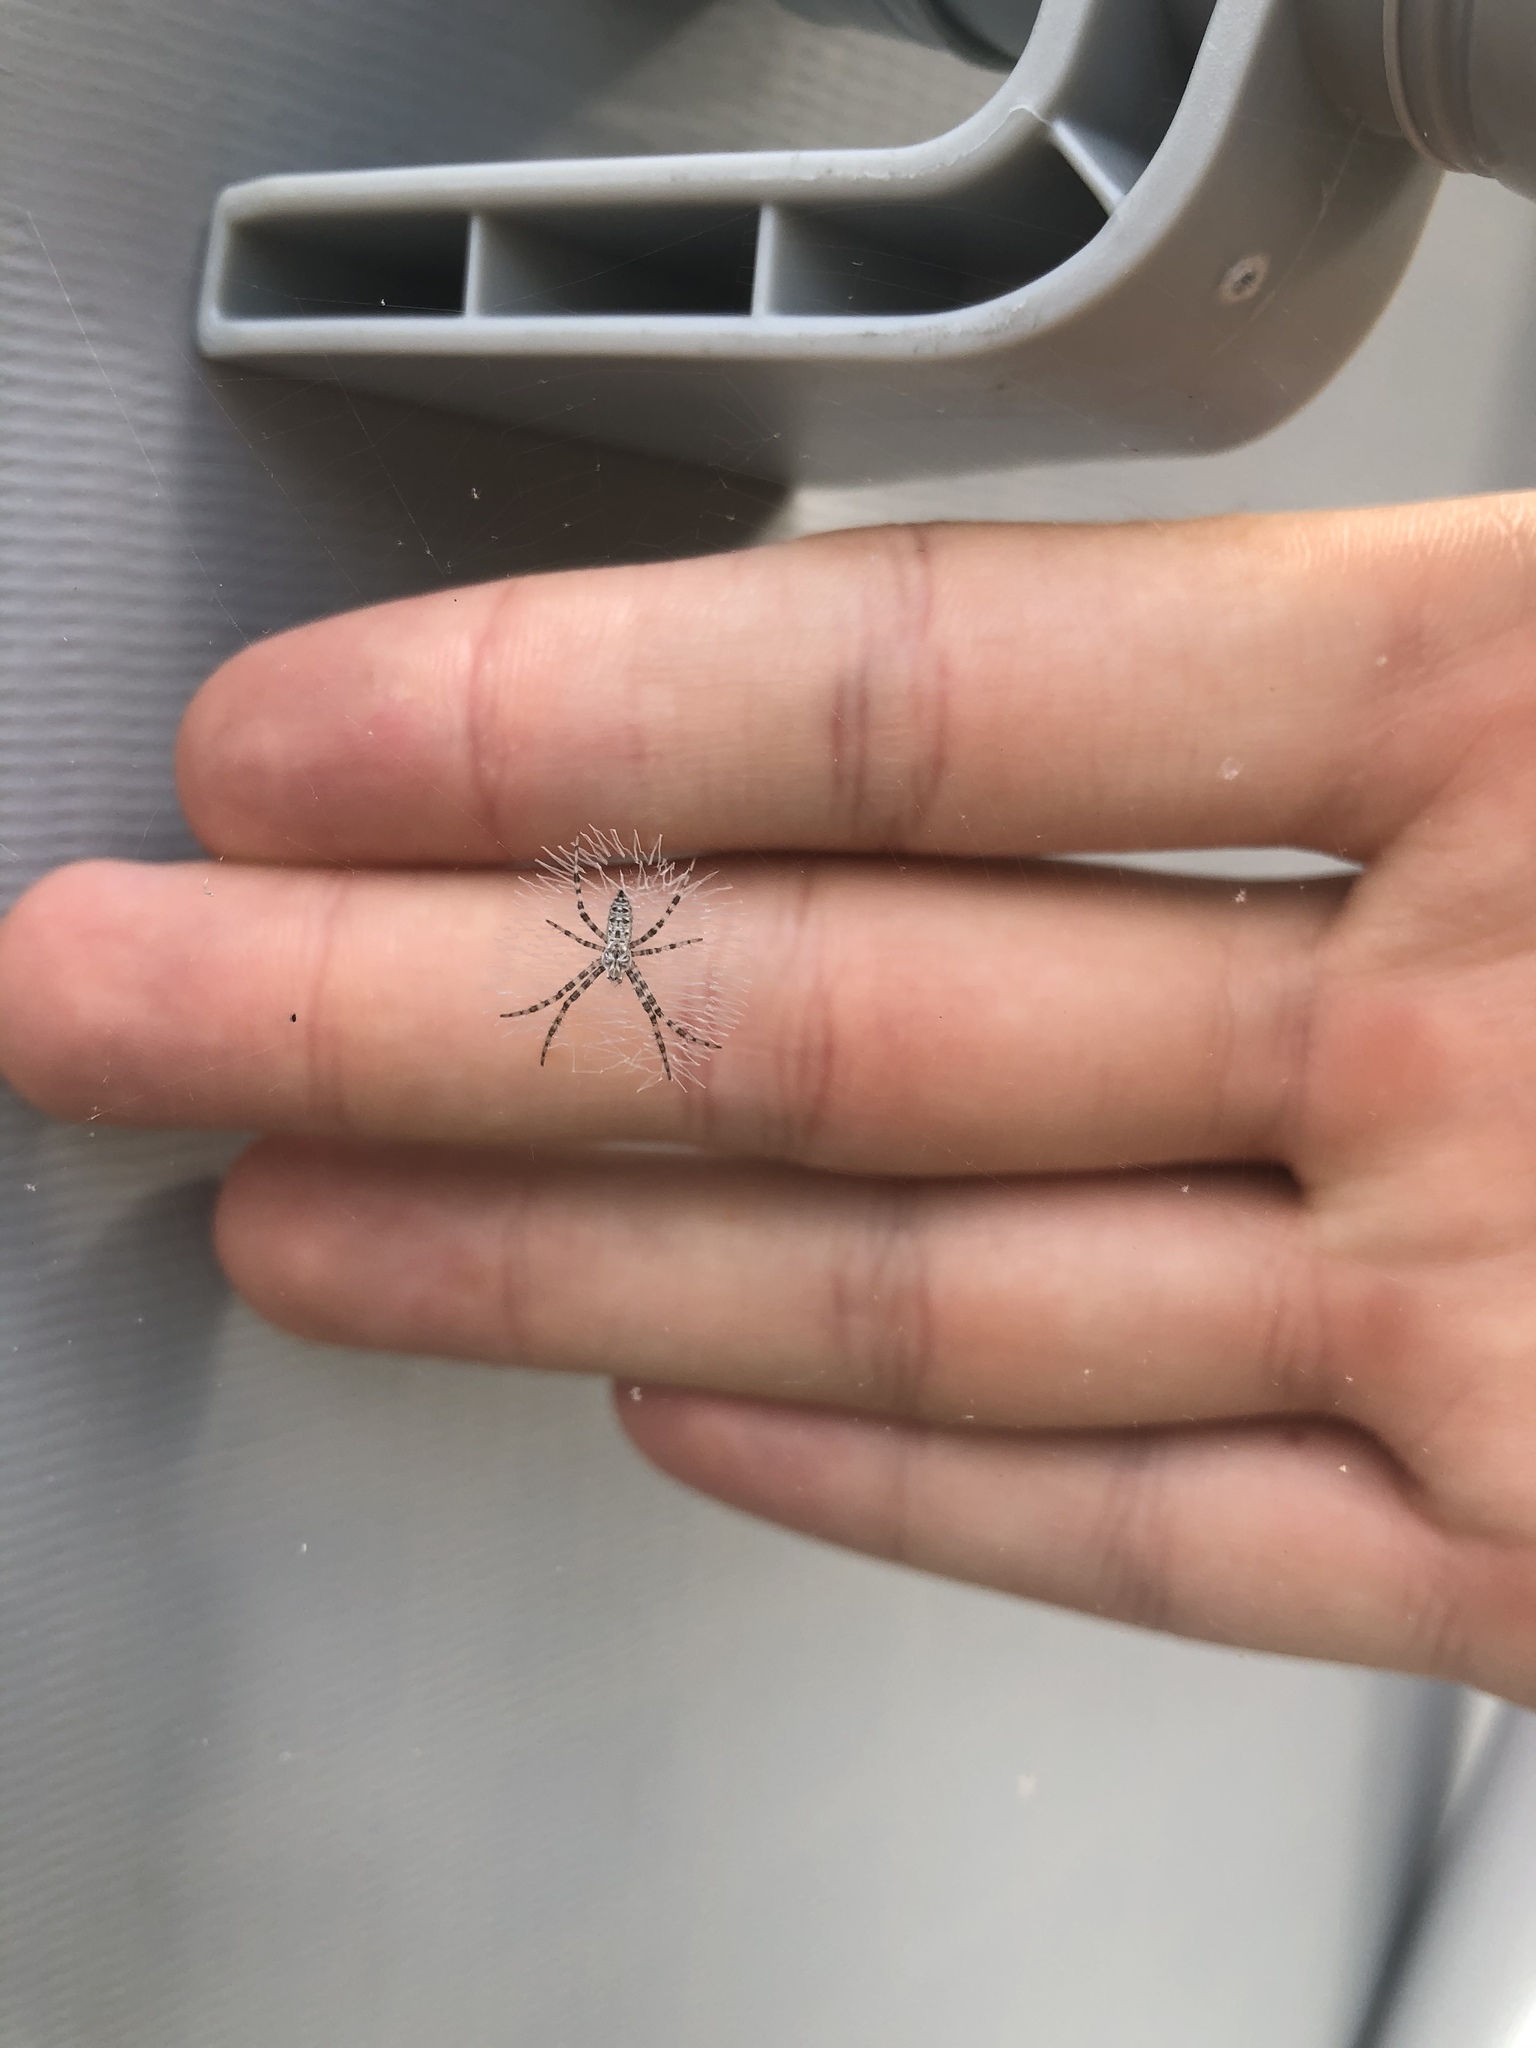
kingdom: Animalia
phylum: Arthropoda
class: Arachnida
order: Araneae
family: Araneidae
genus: Argiope
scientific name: Argiope aurantia
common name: Orb weavers
